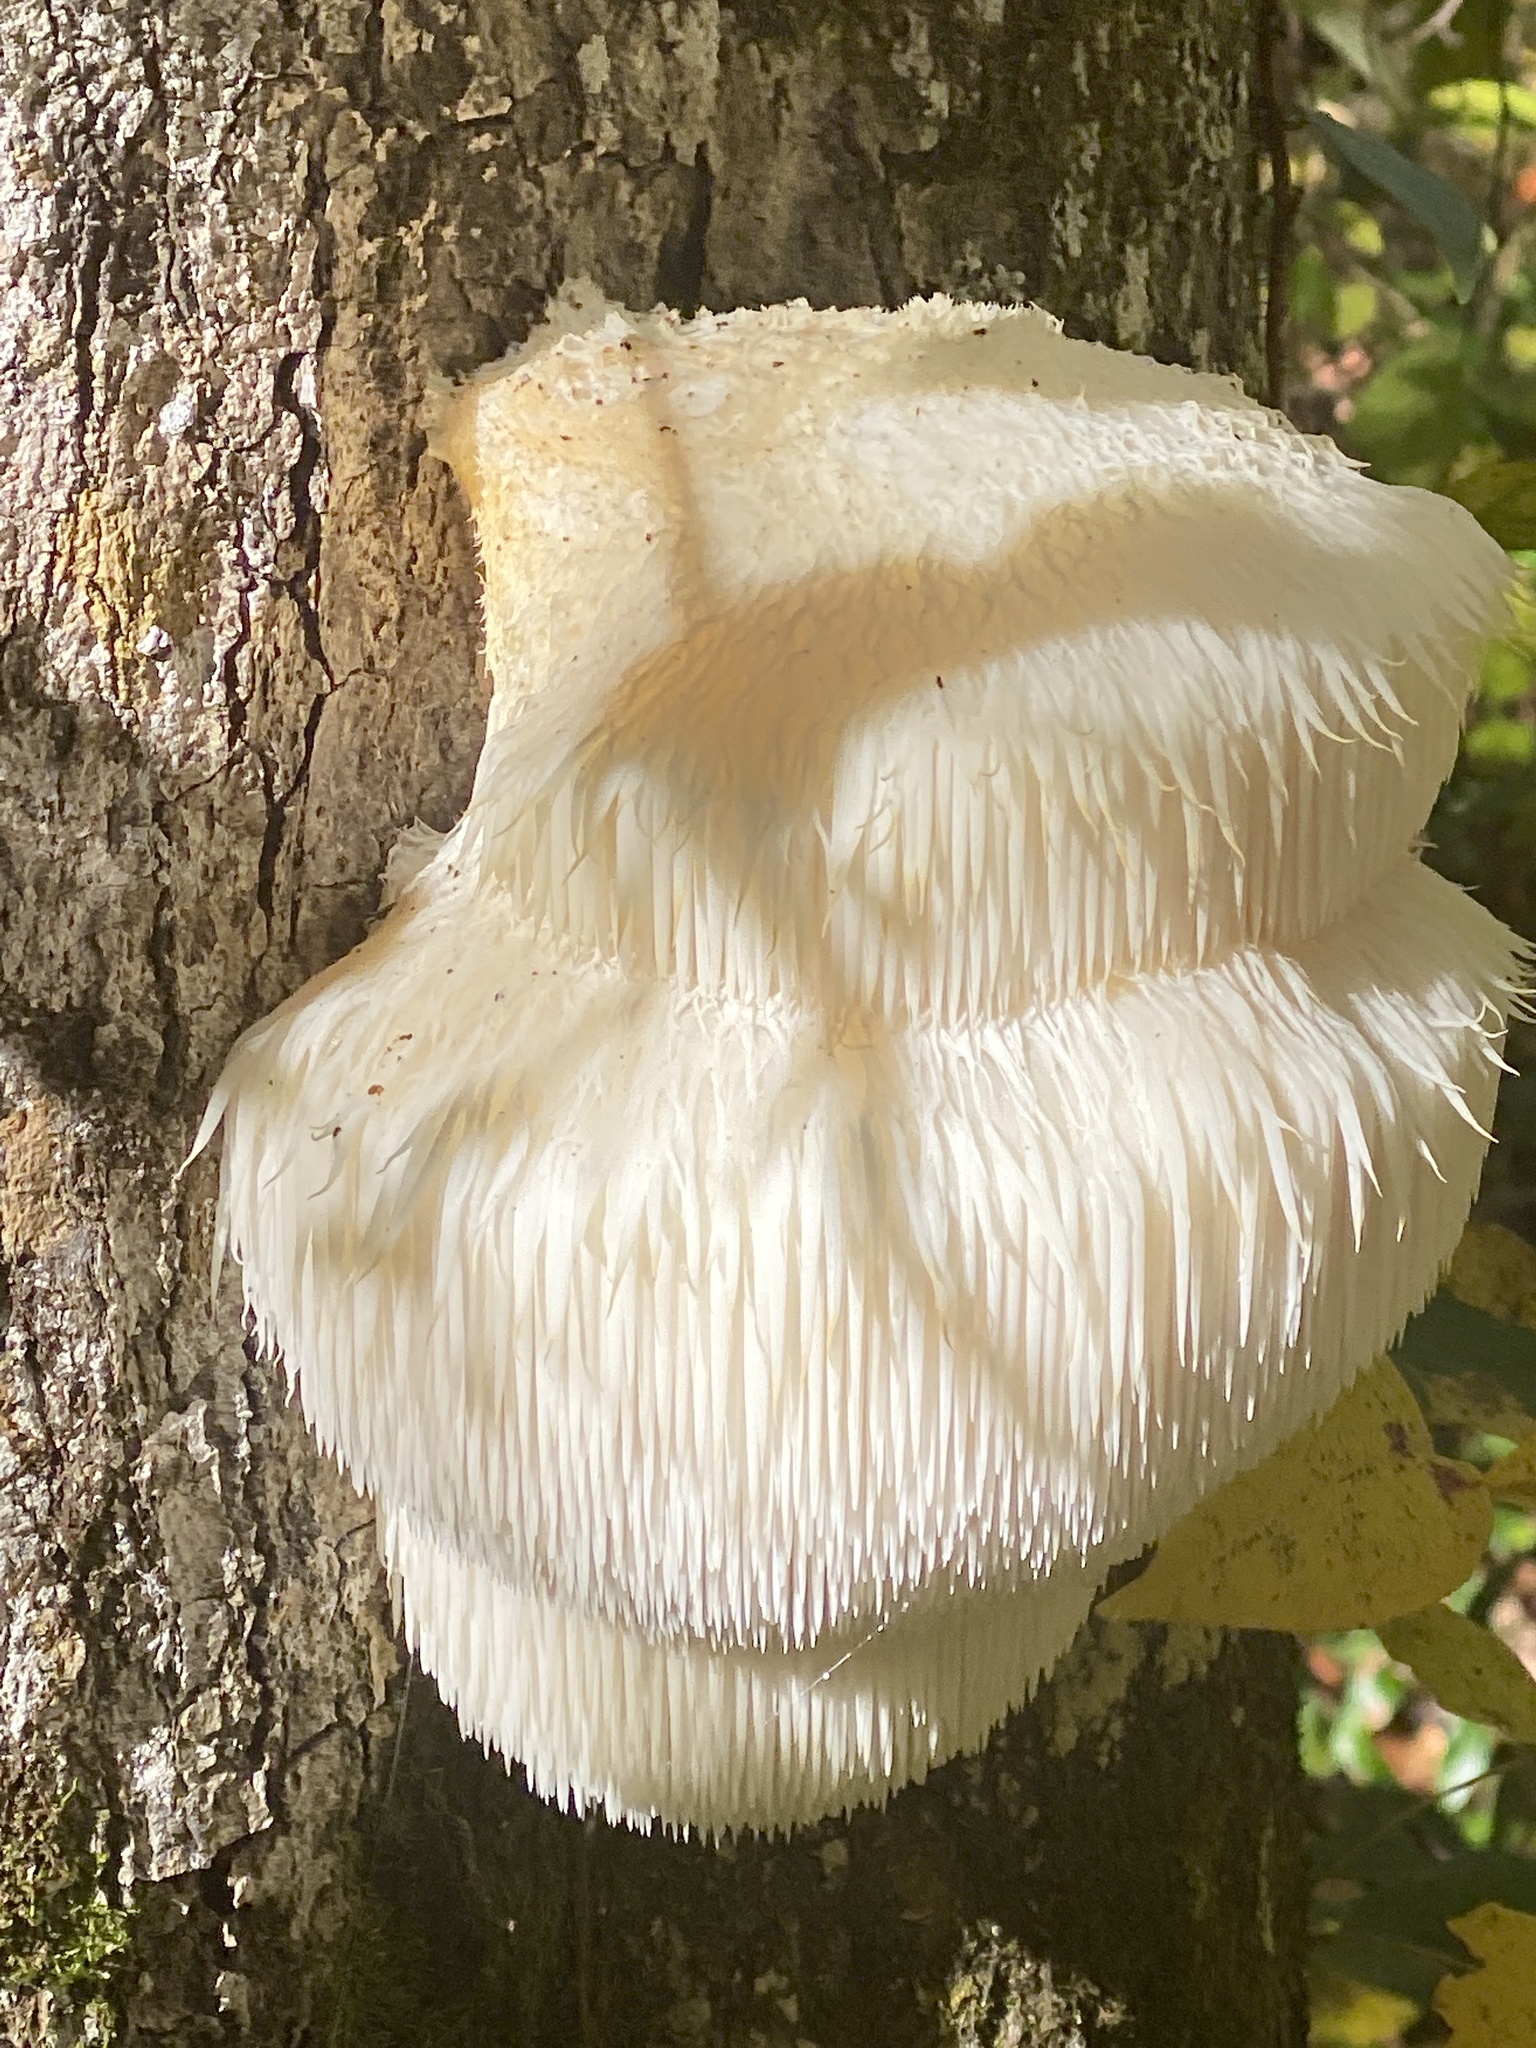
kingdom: Fungi
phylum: Basidiomycota
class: Agaricomycetes
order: Russulales
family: Hericiaceae
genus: Hericium
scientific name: Hericium erinaceus
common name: Bearded tooth
